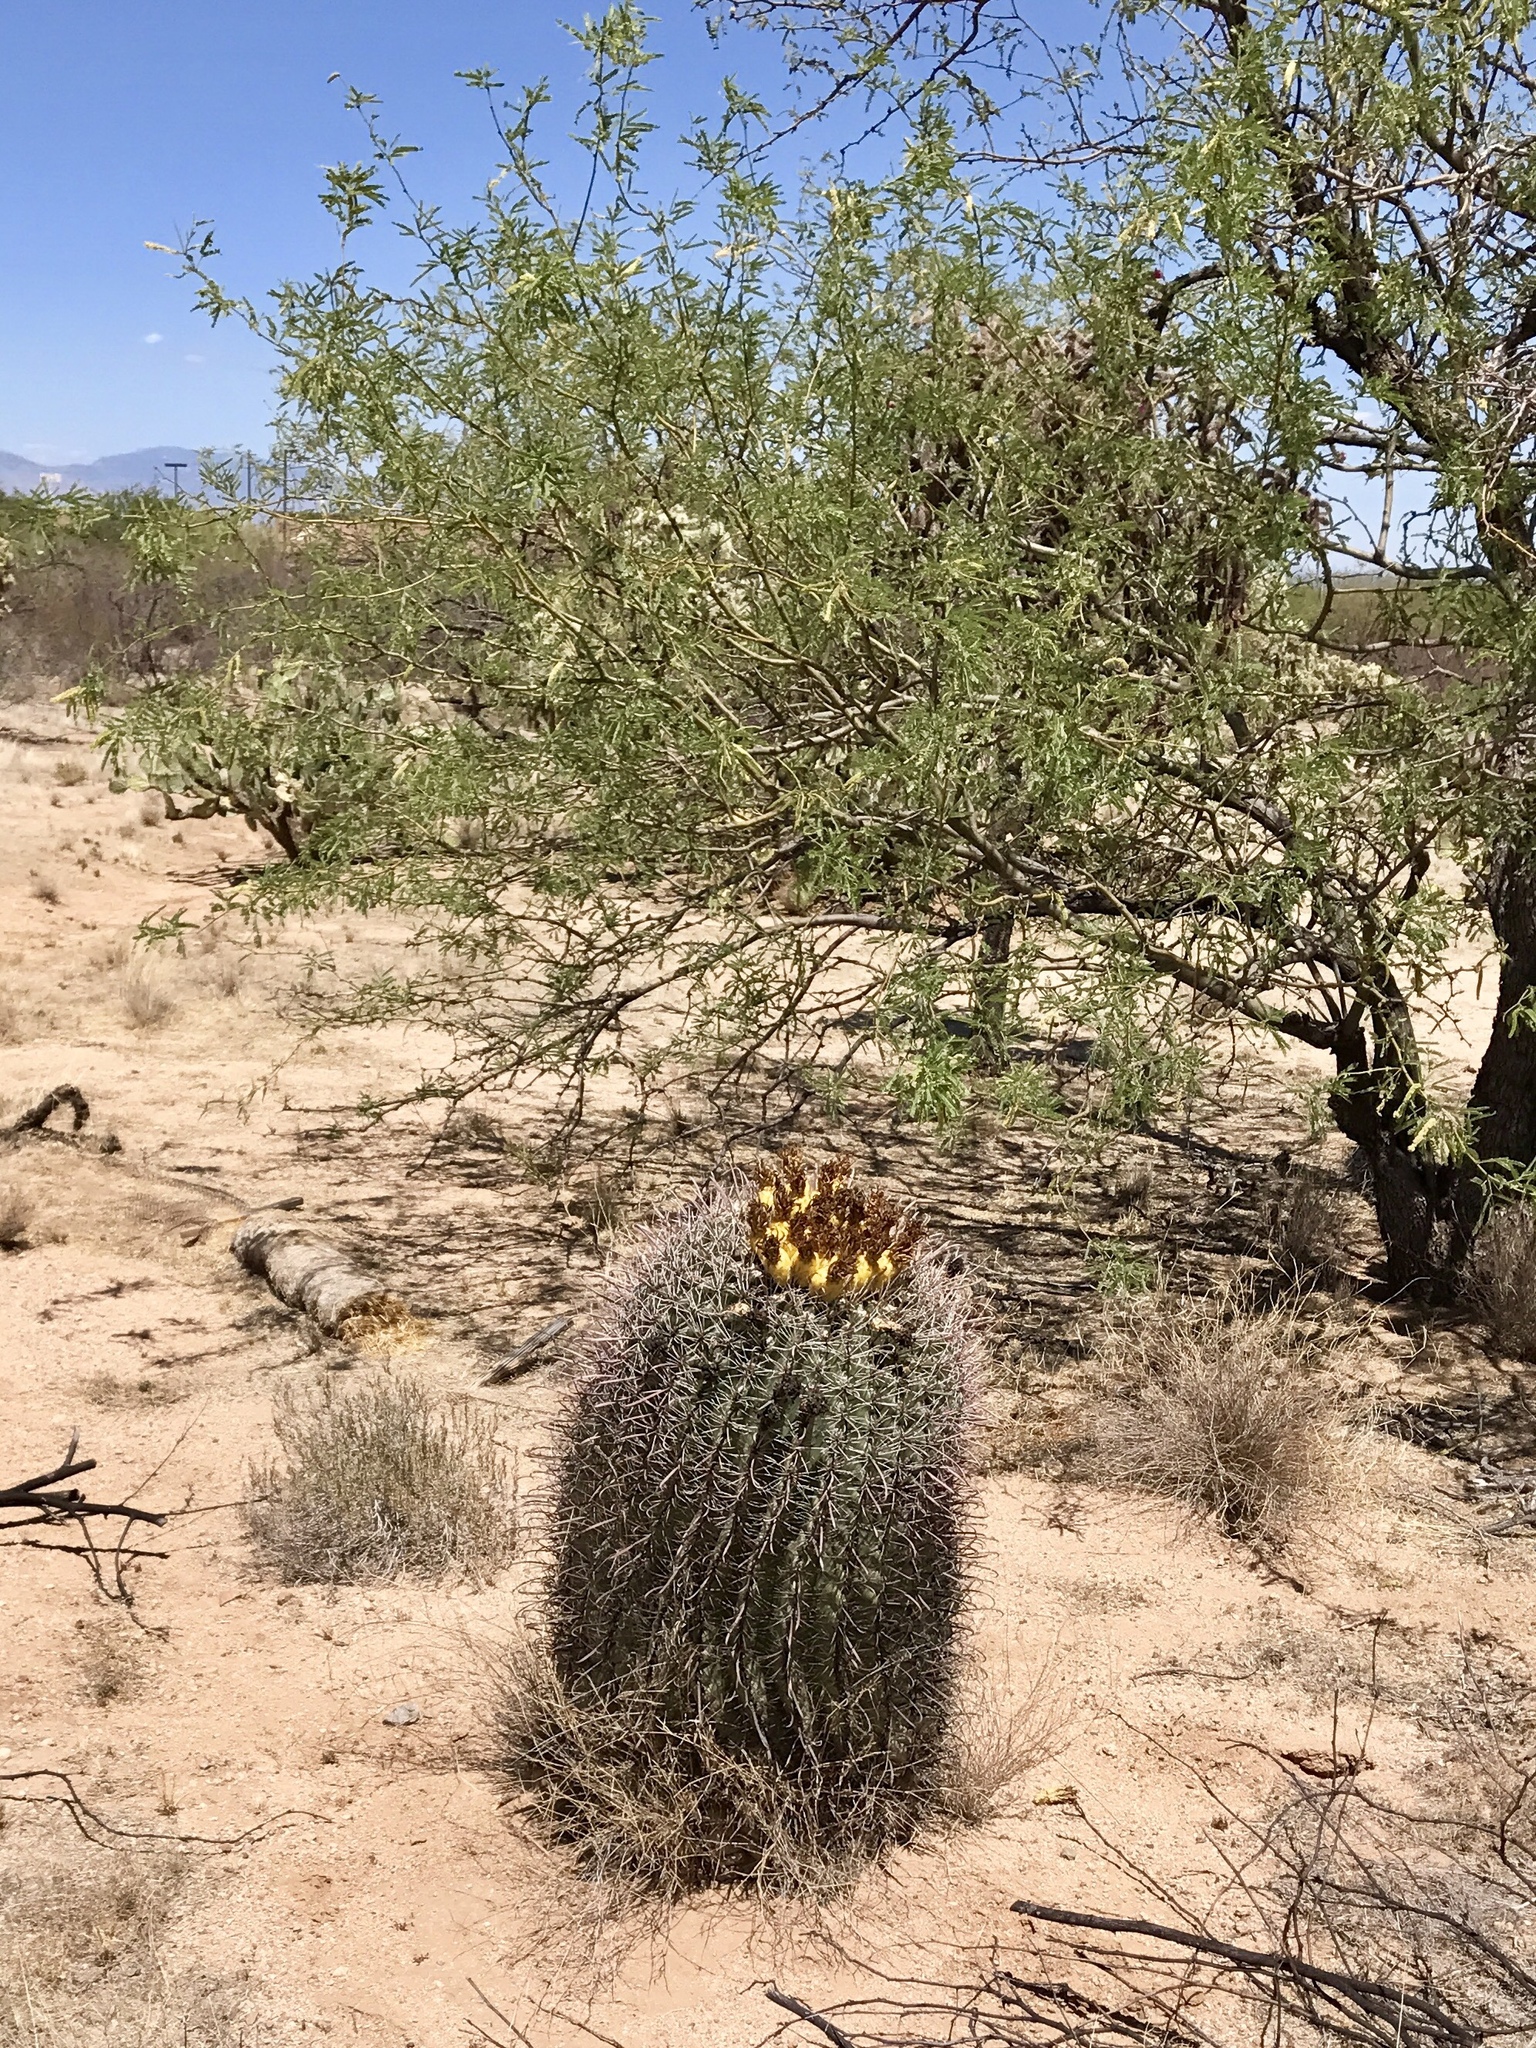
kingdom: Plantae
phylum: Tracheophyta
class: Magnoliopsida
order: Caryophyllales
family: Cactaceae
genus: Ferocactus
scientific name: Ferocactus wislizeni
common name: Candy barrel cactus
